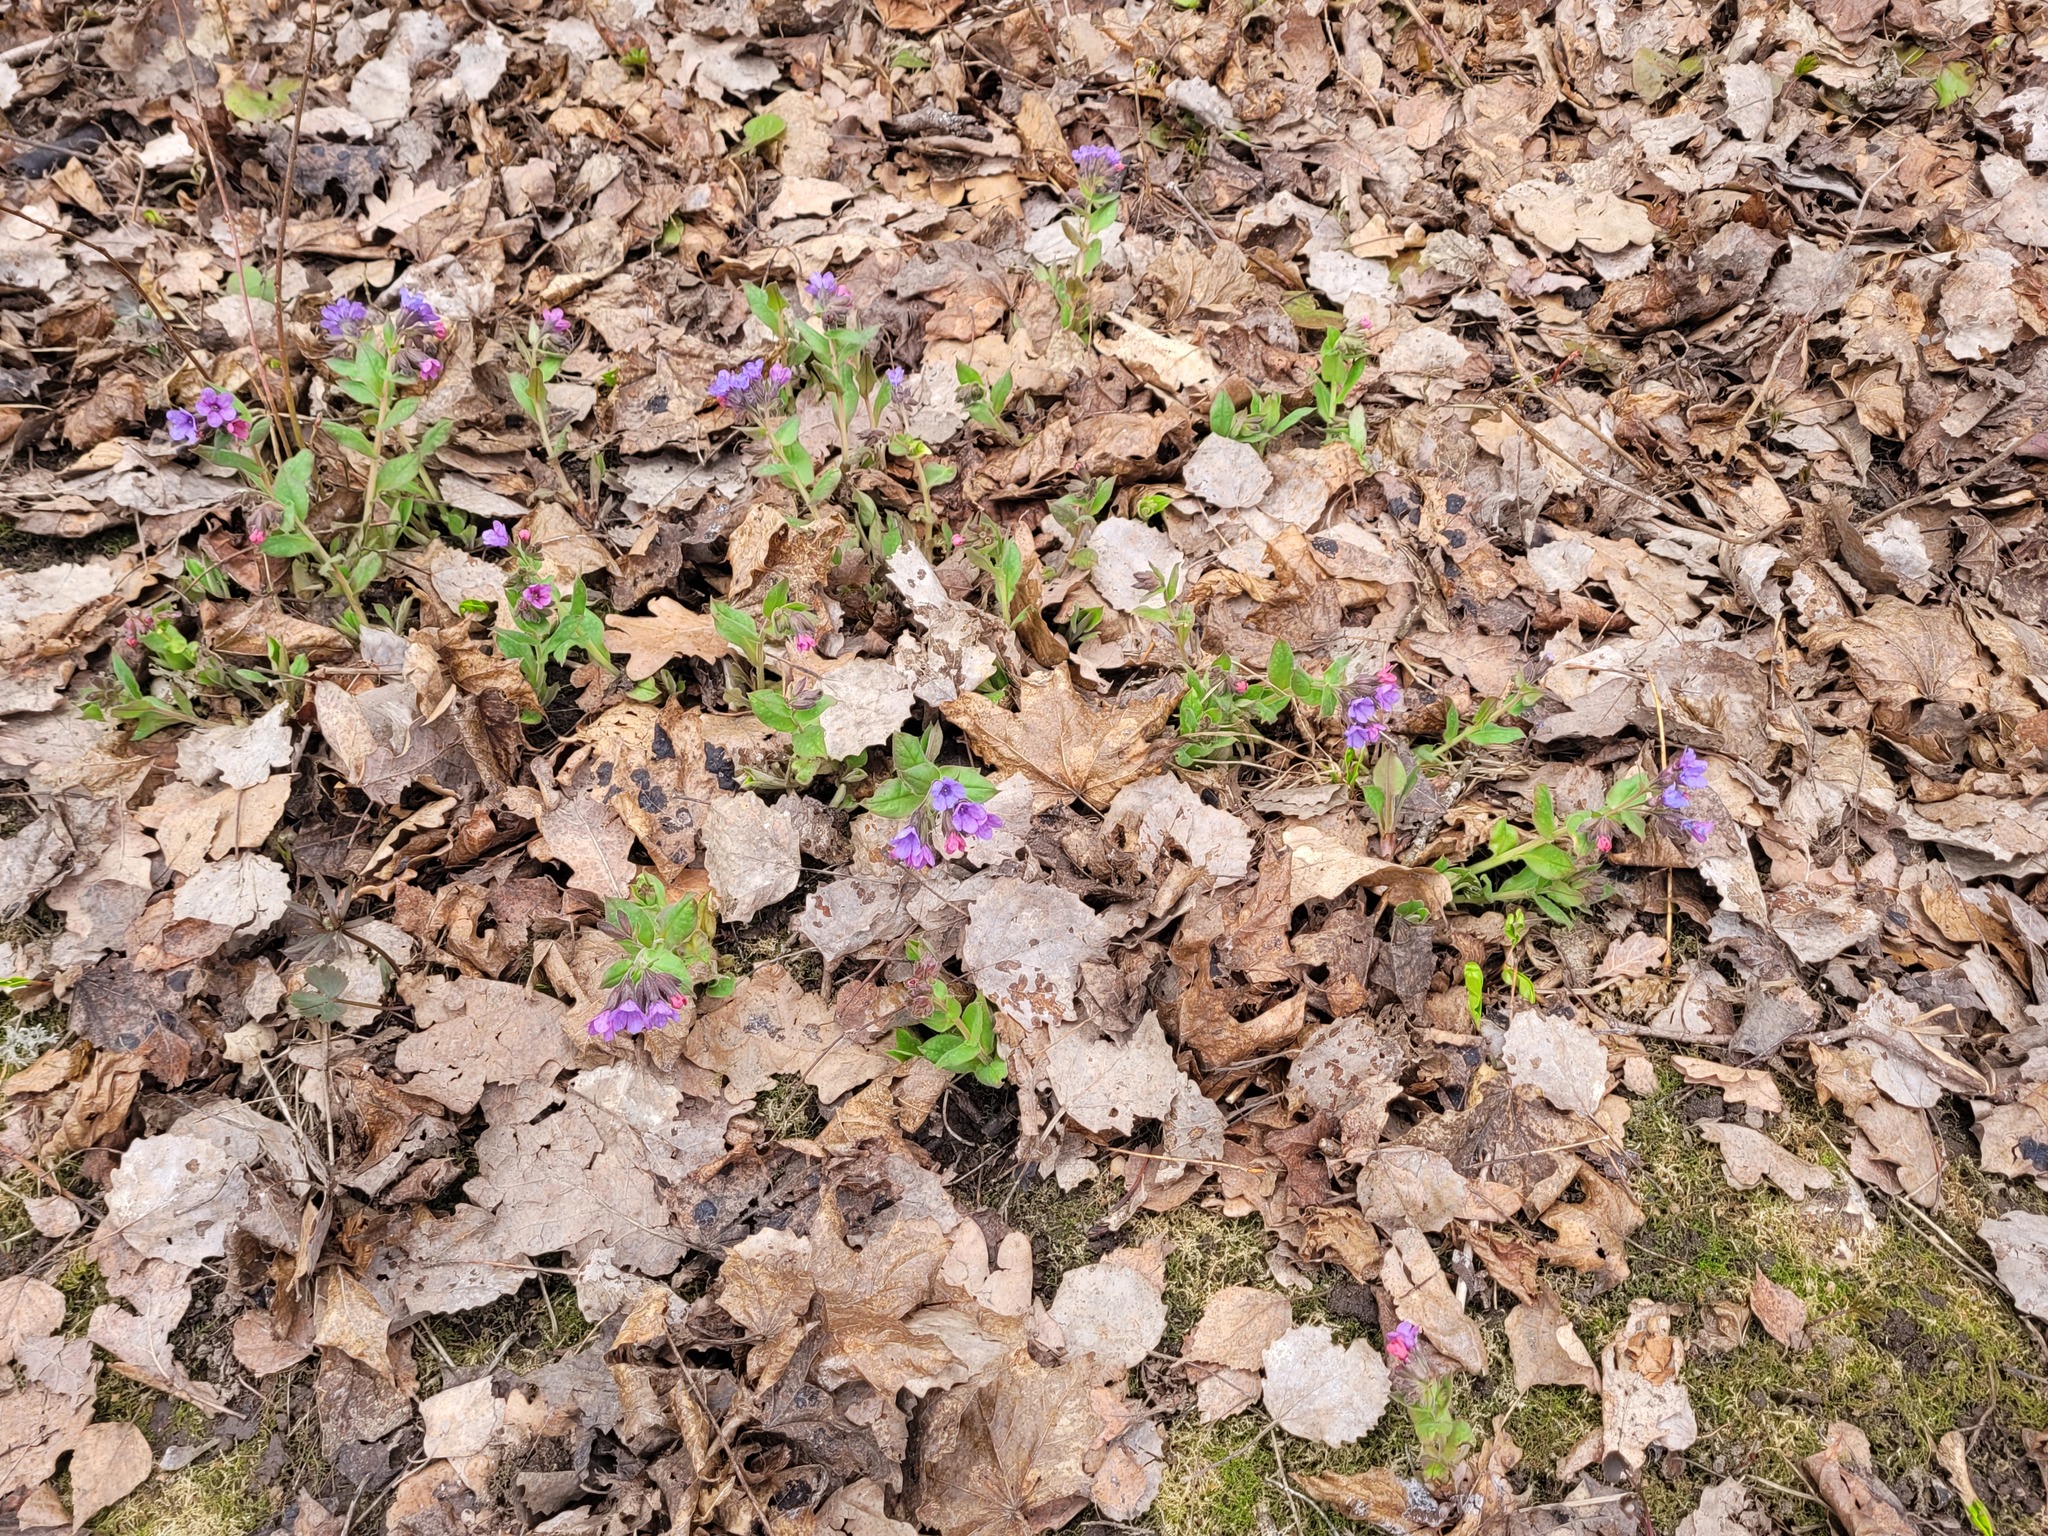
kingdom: Plantae
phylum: Tracheophyta
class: Magnoliopsida
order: Boraginales
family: Boraginaceae
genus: Pulmonaria
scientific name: Pulmonaria obscura
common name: Suffolk lungwort
